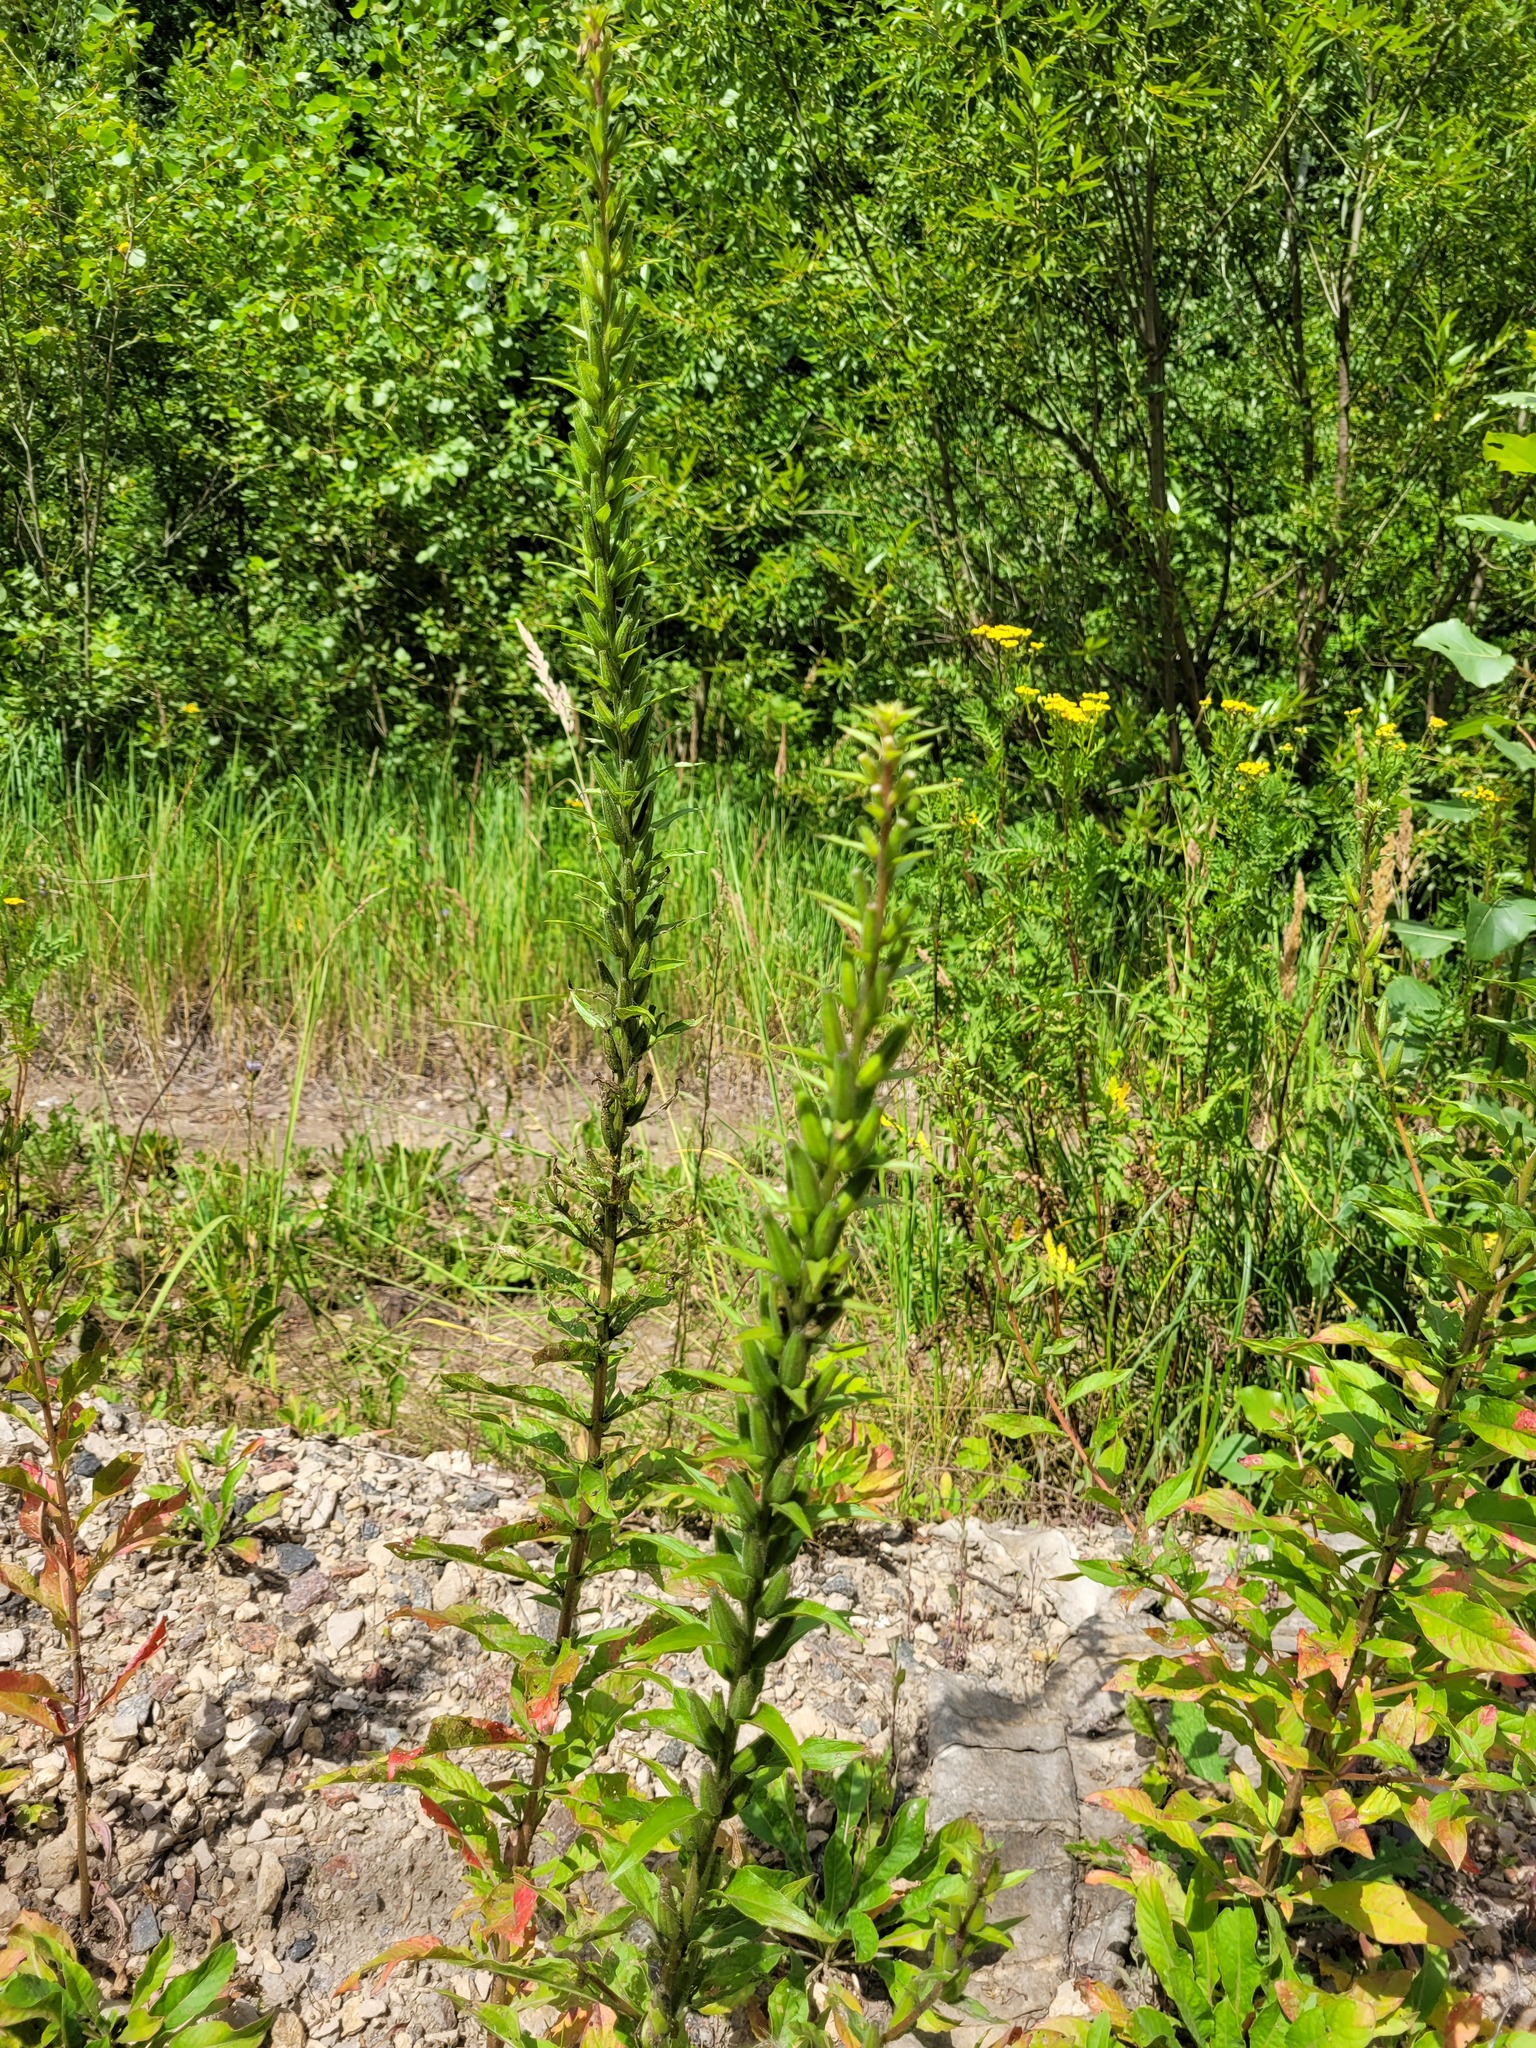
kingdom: Plantae
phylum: Tracheophyta
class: Magnoliopsida
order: Myrtales
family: Onagraceae
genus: Oenothera
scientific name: Oenothera rubricaulis
